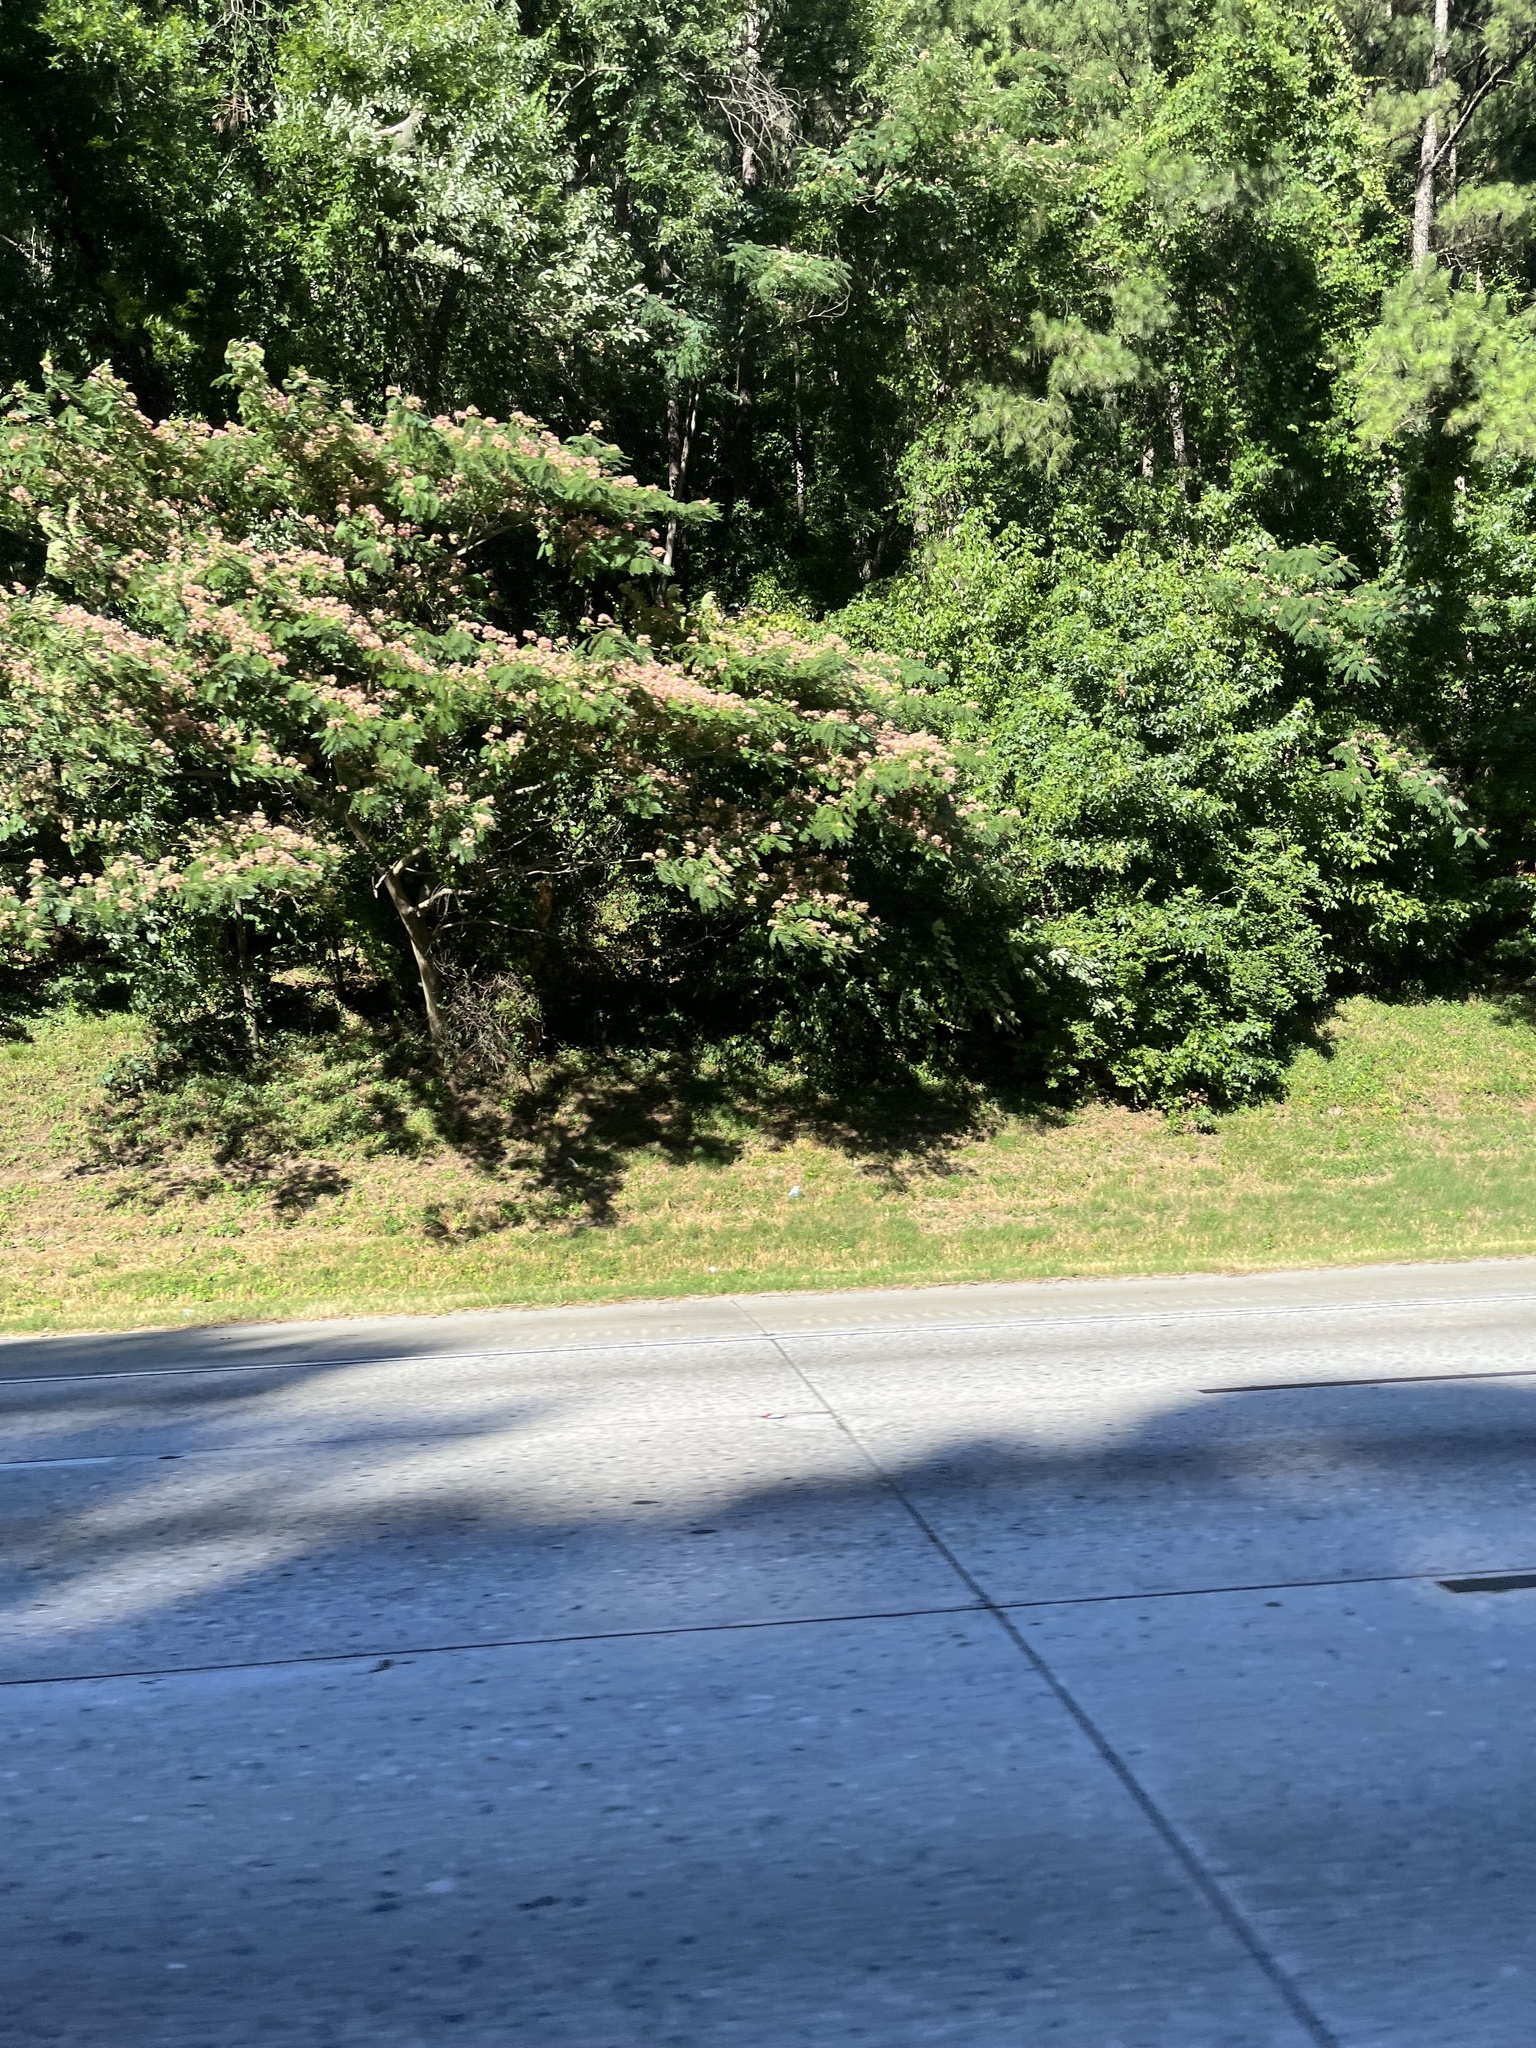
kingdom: Plantae
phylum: Tracheophyta
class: Magnoliopsida
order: Fabales
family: Fabaceae
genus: Albizia
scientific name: Albizia julibrissin
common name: Silktree
